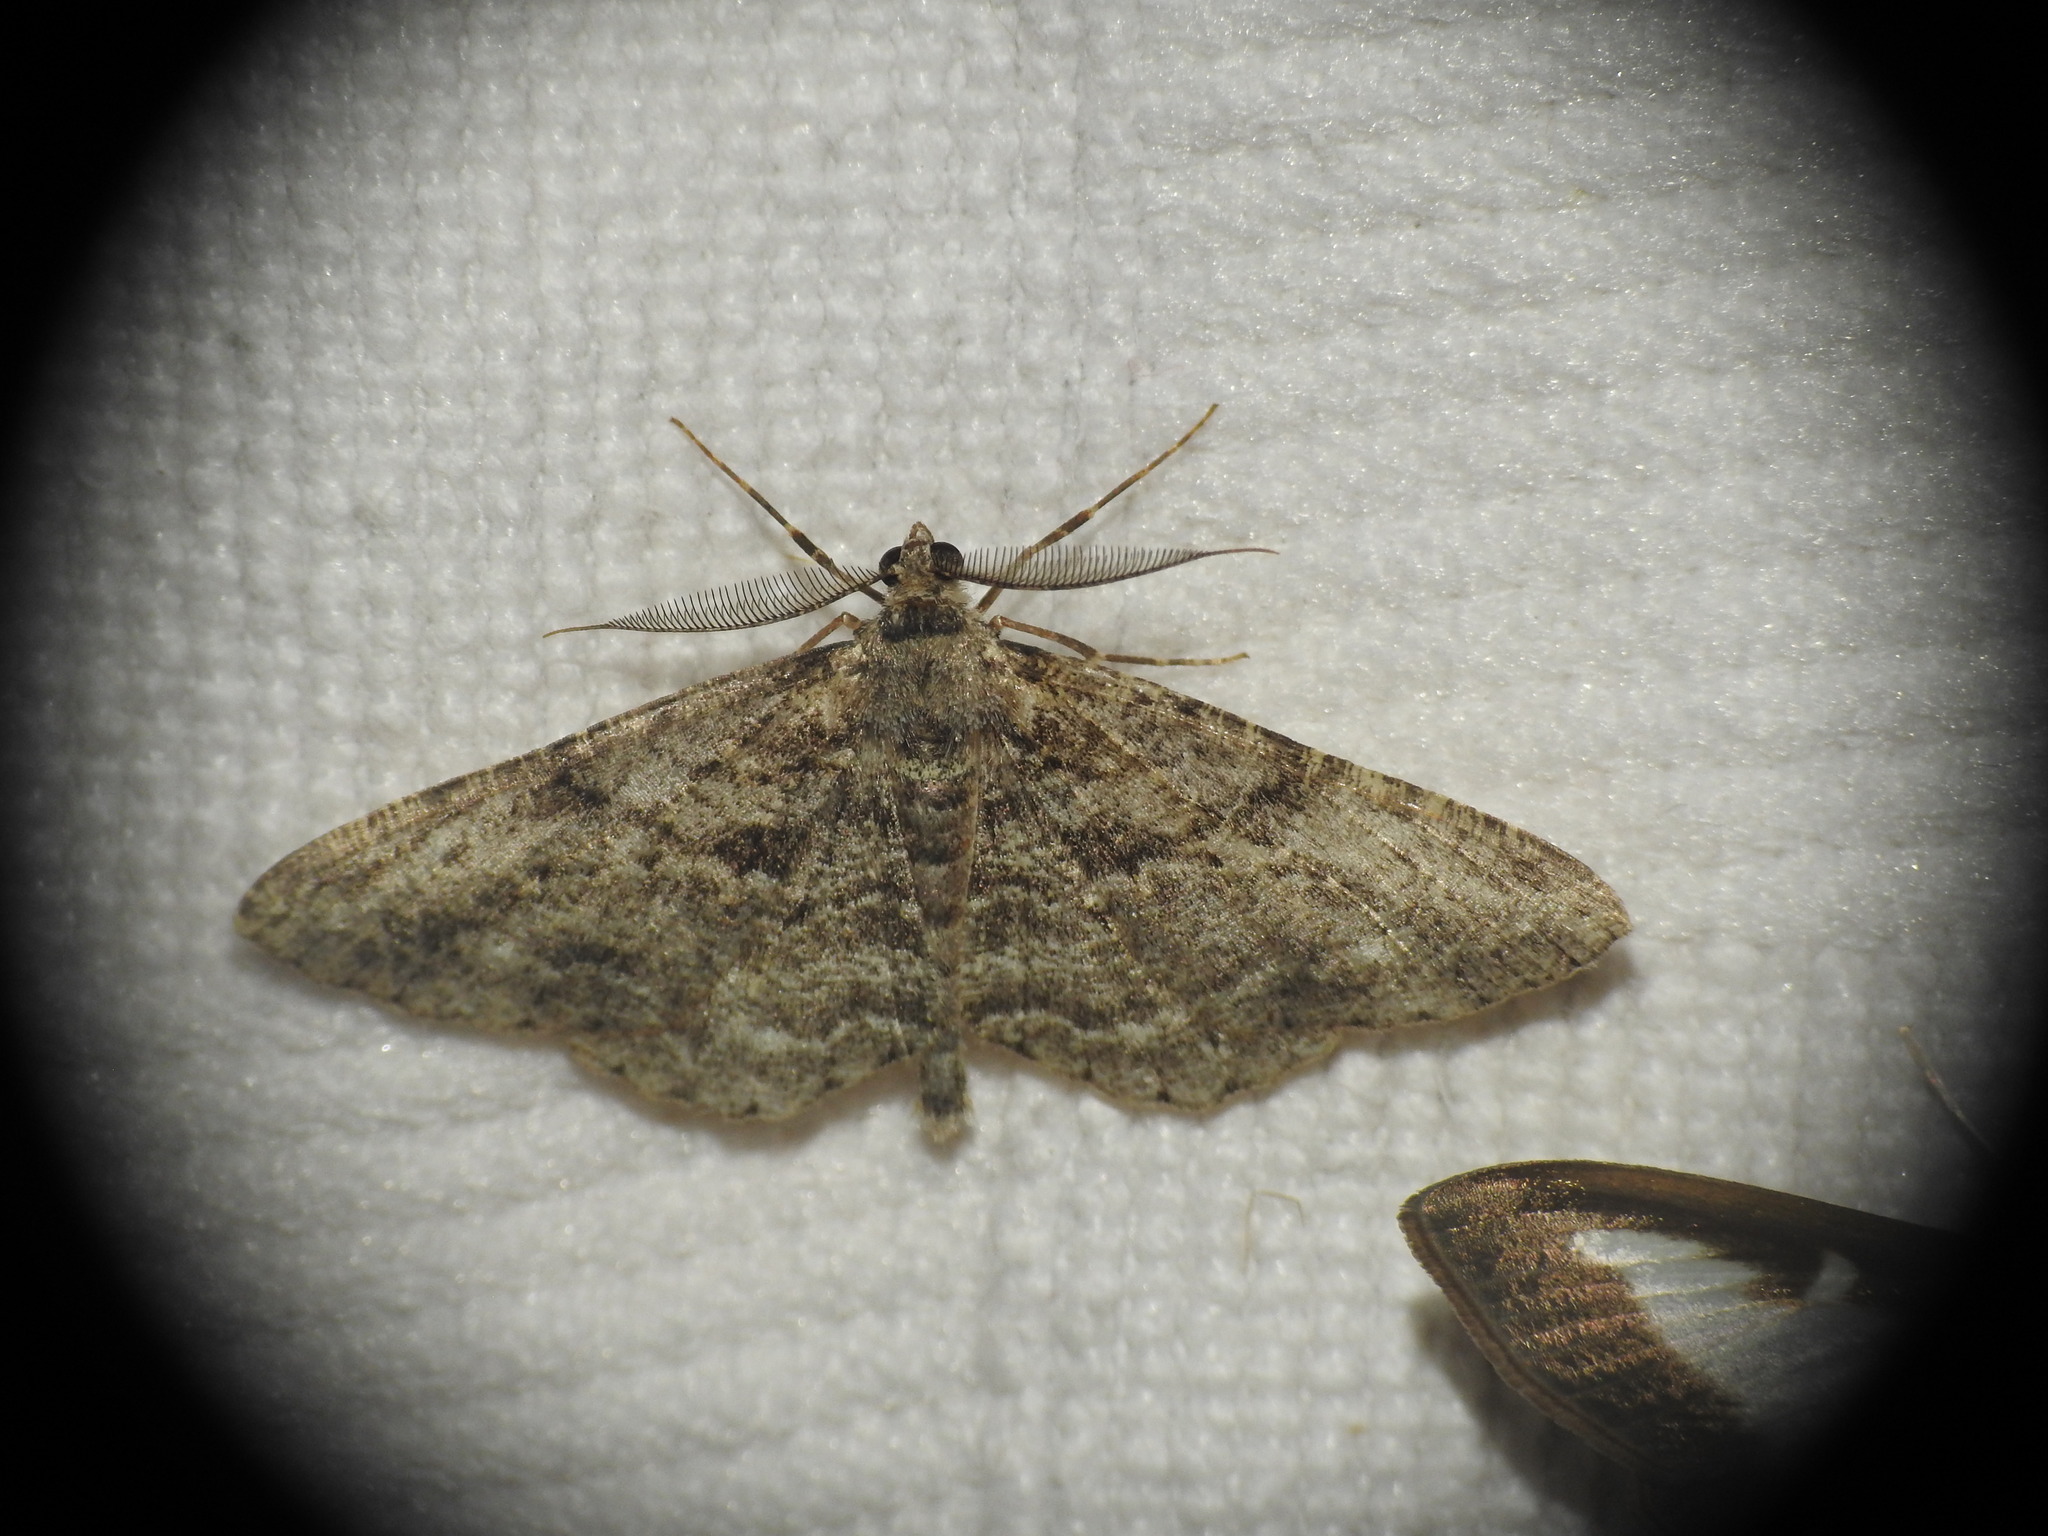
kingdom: Animalia
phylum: Arthropoda
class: Insecta
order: Lepidoptera
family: Geometridae
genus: Peribatodes
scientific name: Peribatodes rhomboidaria
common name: Willow beauty
